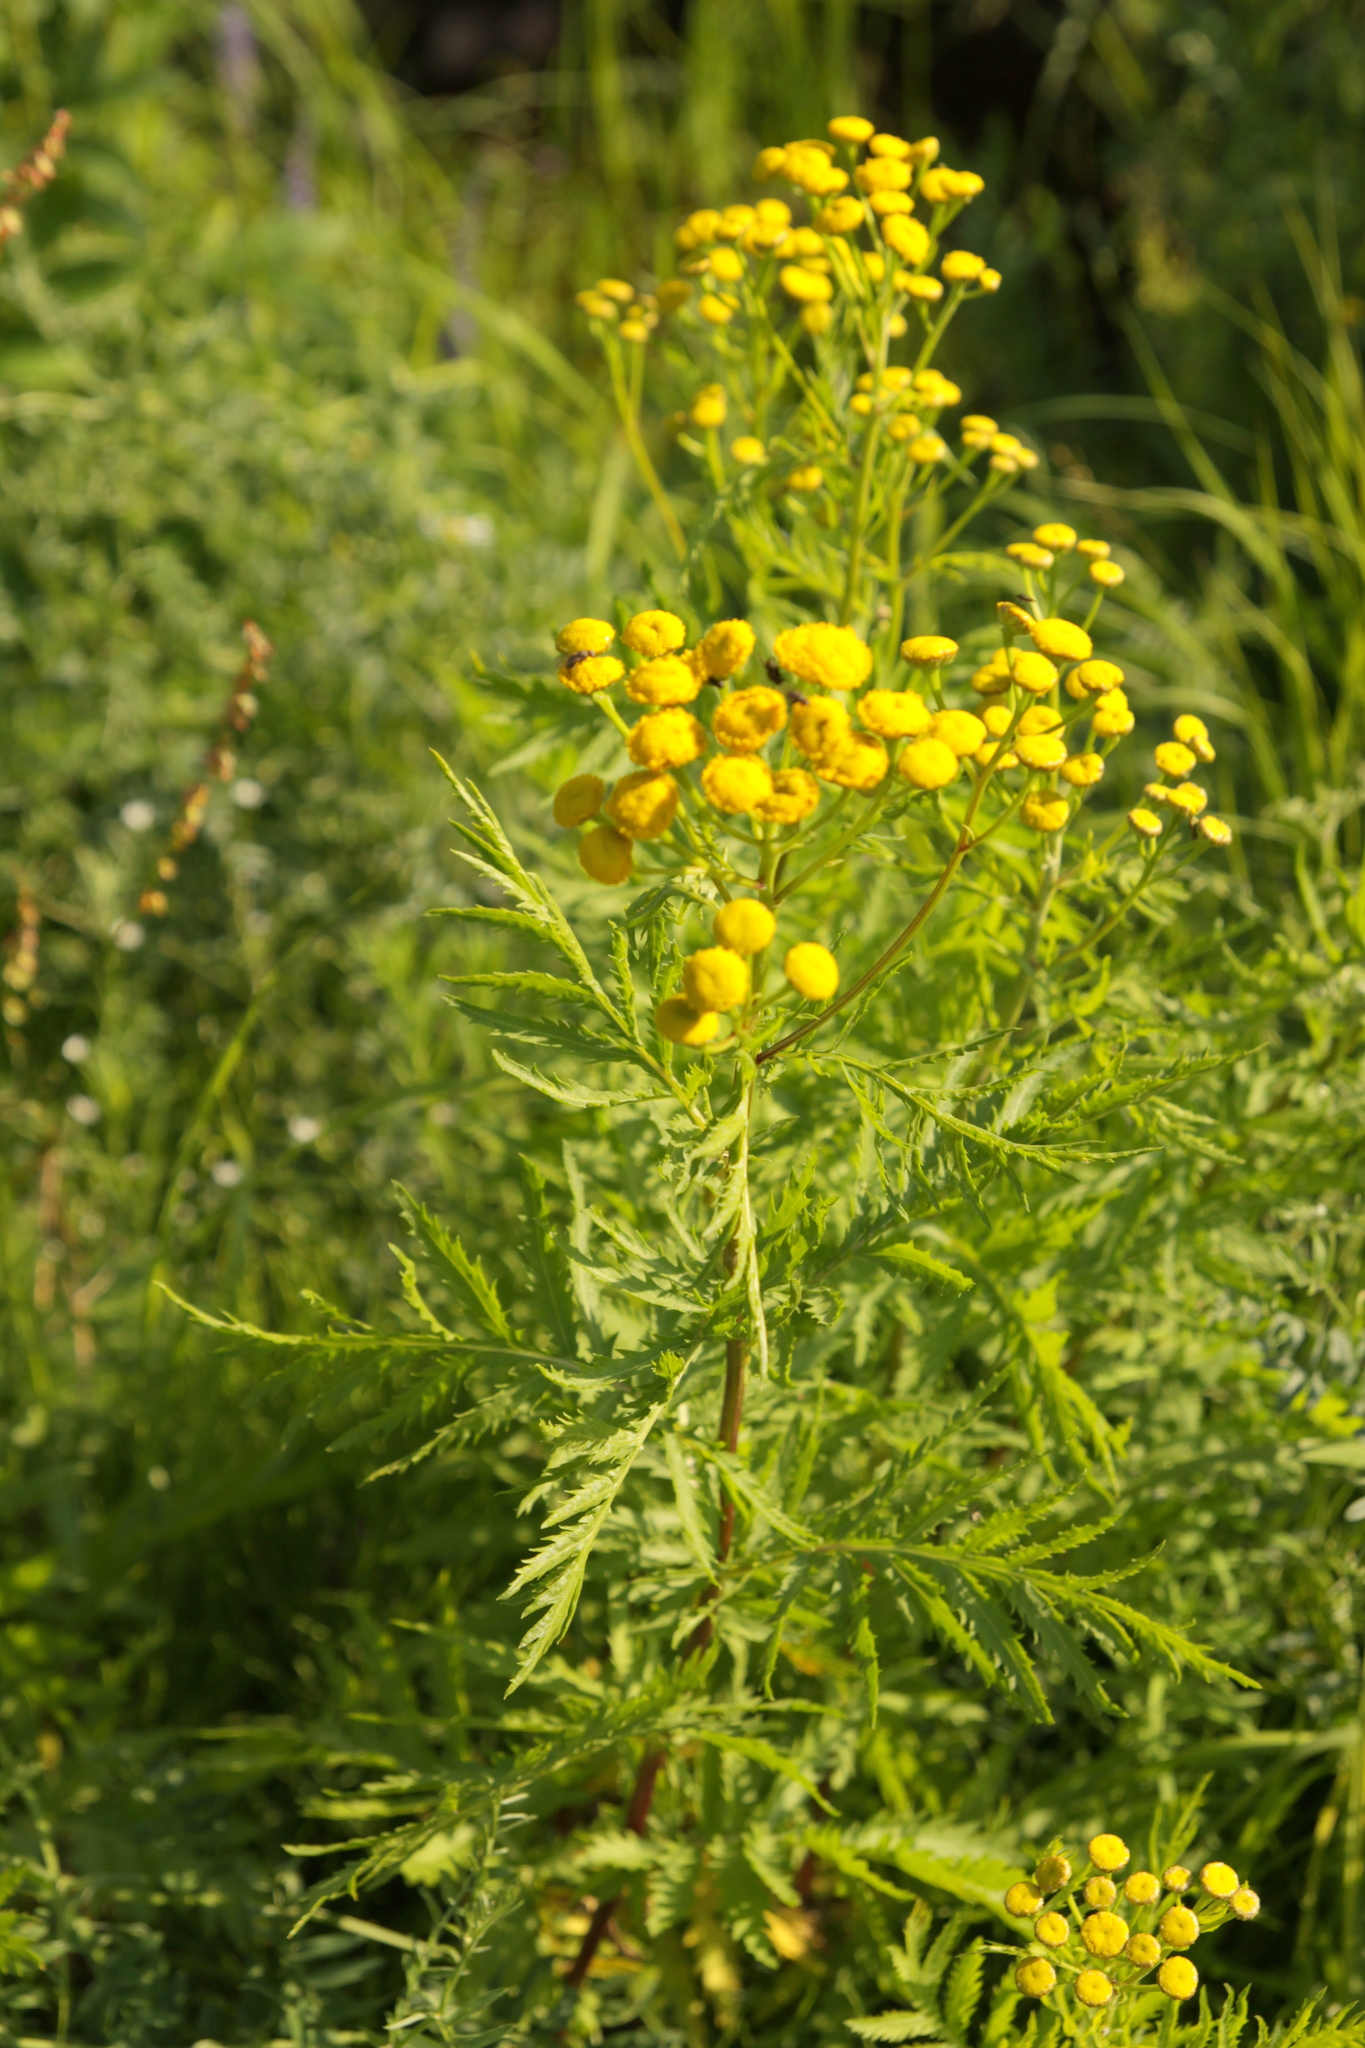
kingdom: Plantae
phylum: Tracheophyta
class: Magnoliopsida
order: Asterales
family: Asteraceae
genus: Tanacetum
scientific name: Tanacetum vulgare
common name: Common tansy
